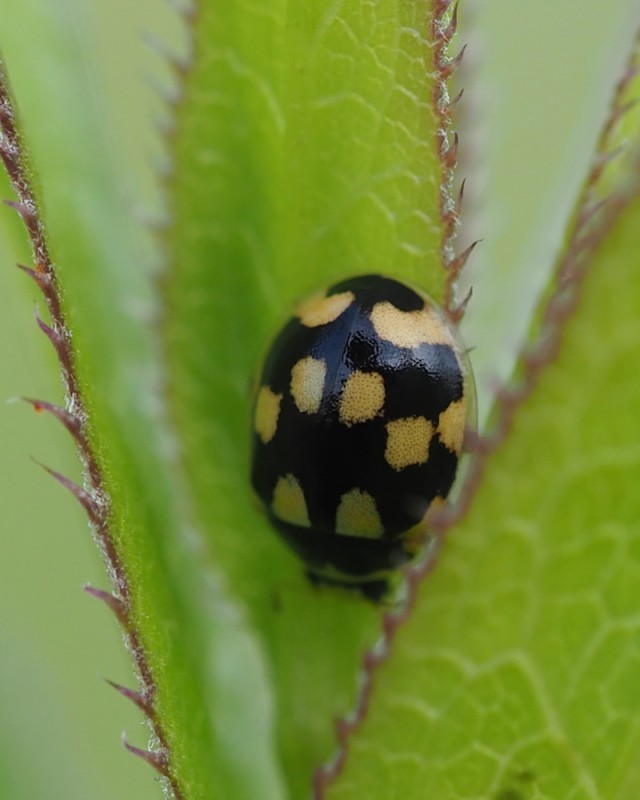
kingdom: Animalia
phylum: Arthropoda
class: Insecta
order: Coleoptera
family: Coccinellidae
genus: Propylaea
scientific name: Propylaea quatuordecimpunctata
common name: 14-spotted ladybird beetle
